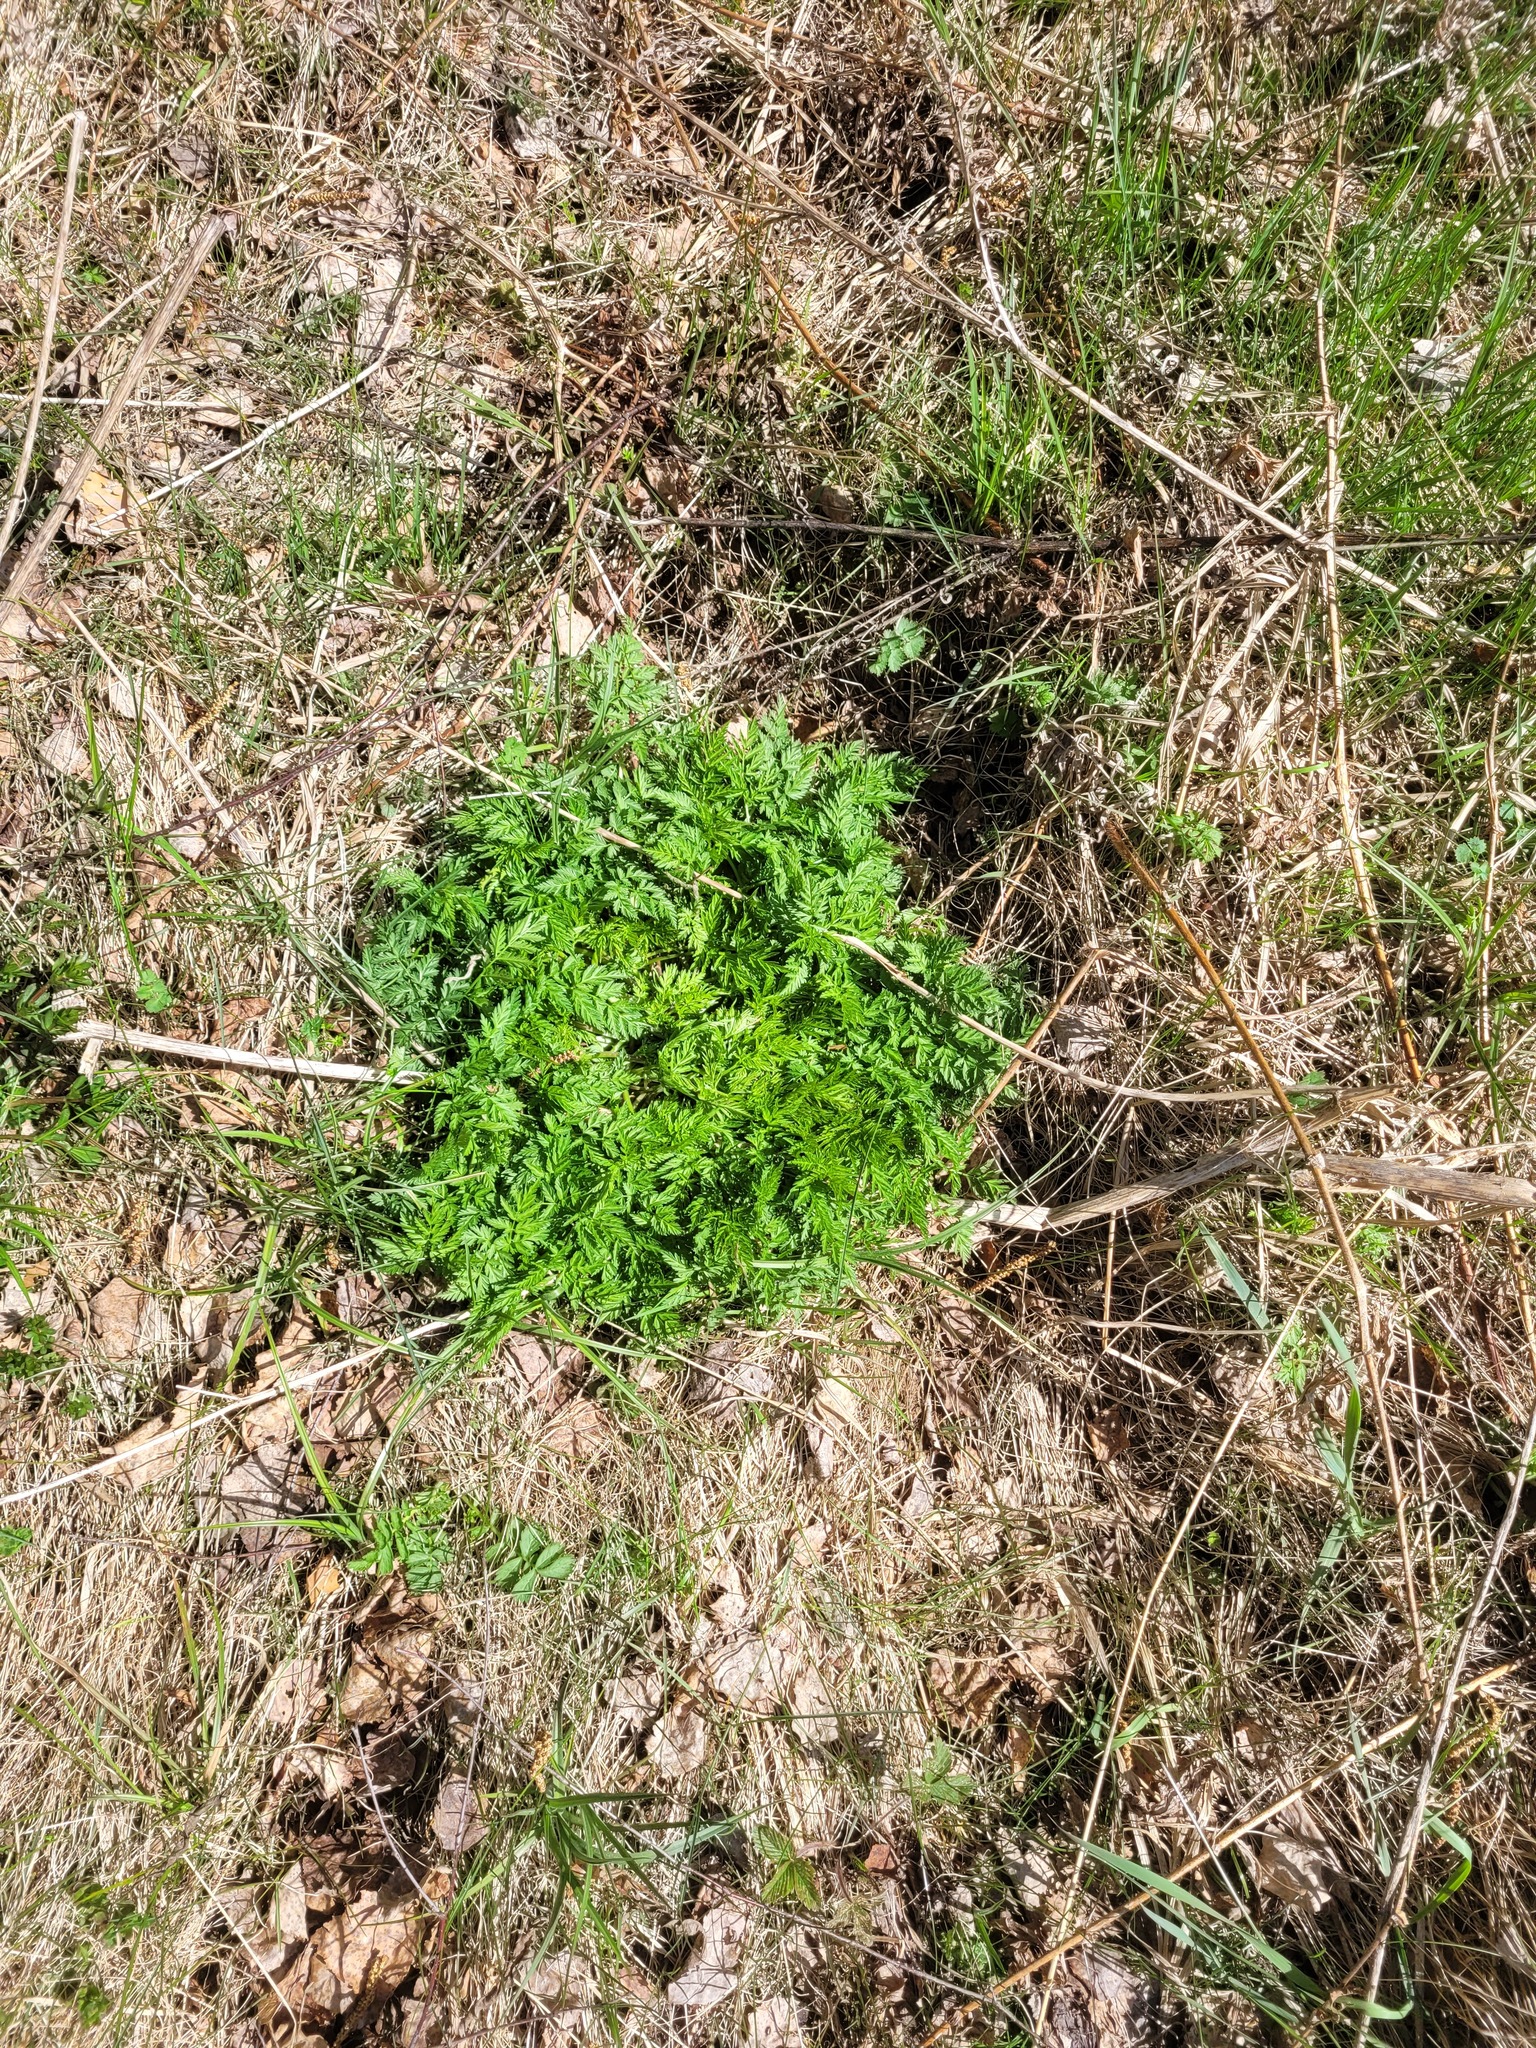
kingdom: Plantae
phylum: Tracheophyta
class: Magnoliopsida
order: Apiales
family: Apiaceae
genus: Anthriscus
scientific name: Anthriscus sylvestris
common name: Cow parsley
